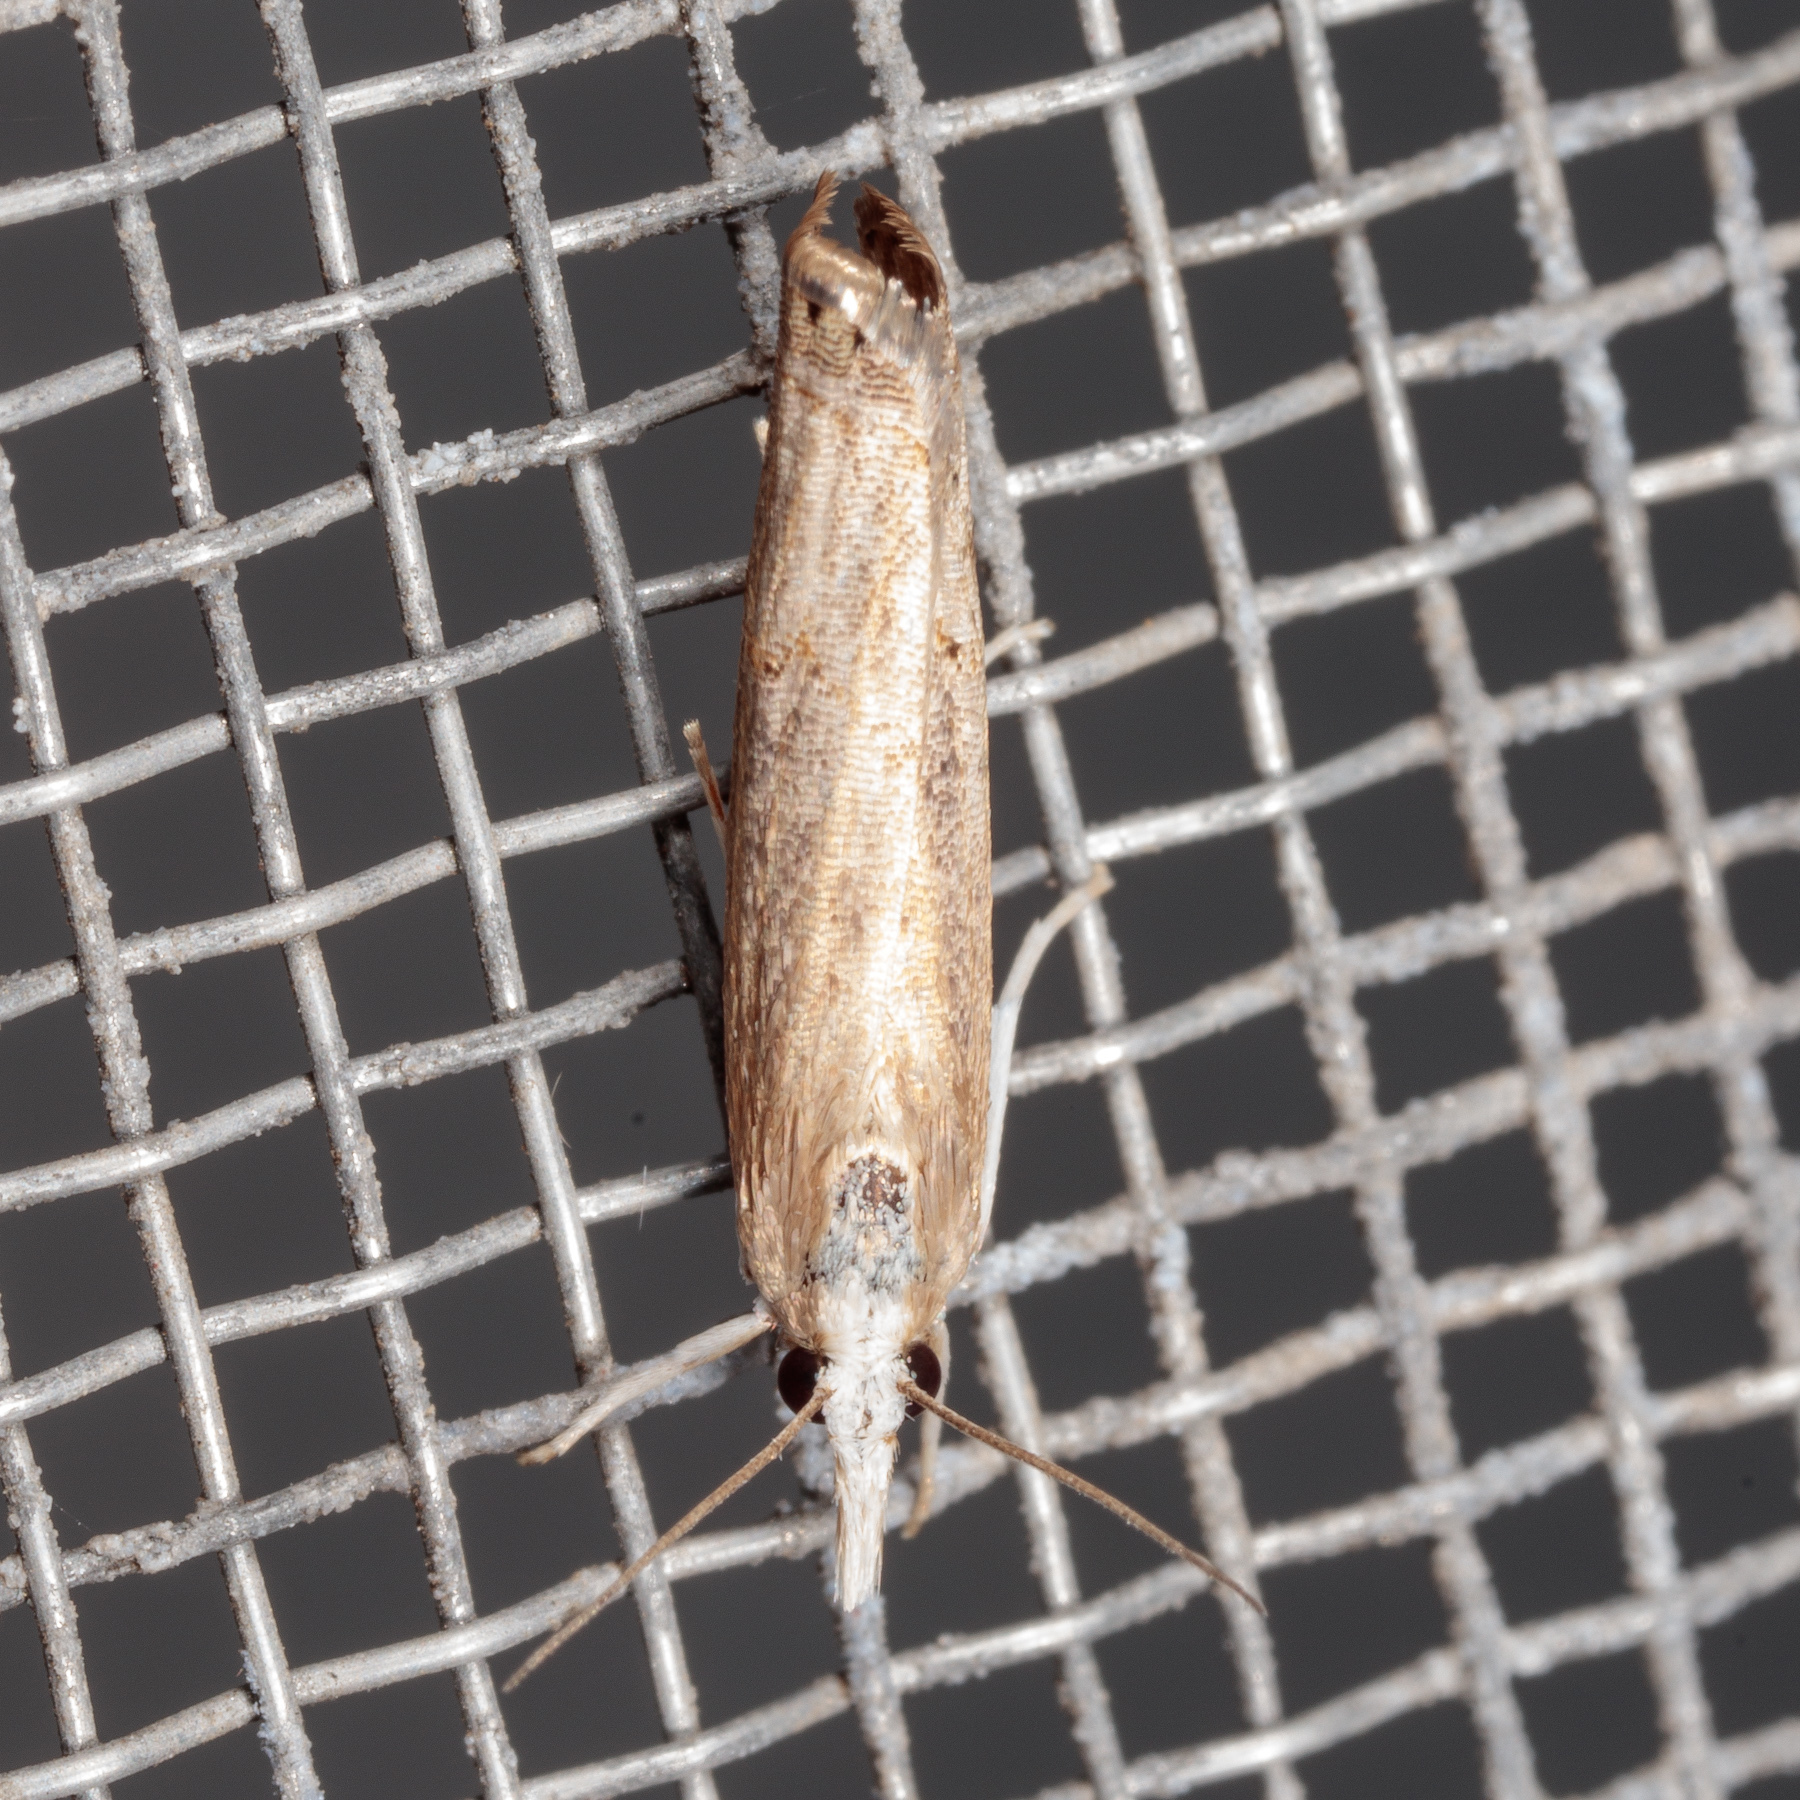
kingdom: Animalia
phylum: Arthropoda
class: Insecta
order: Lepidoptera
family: Crambidae
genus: Parapediasia
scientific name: Parapediasia teterellus
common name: Bluegrass webworm moth
